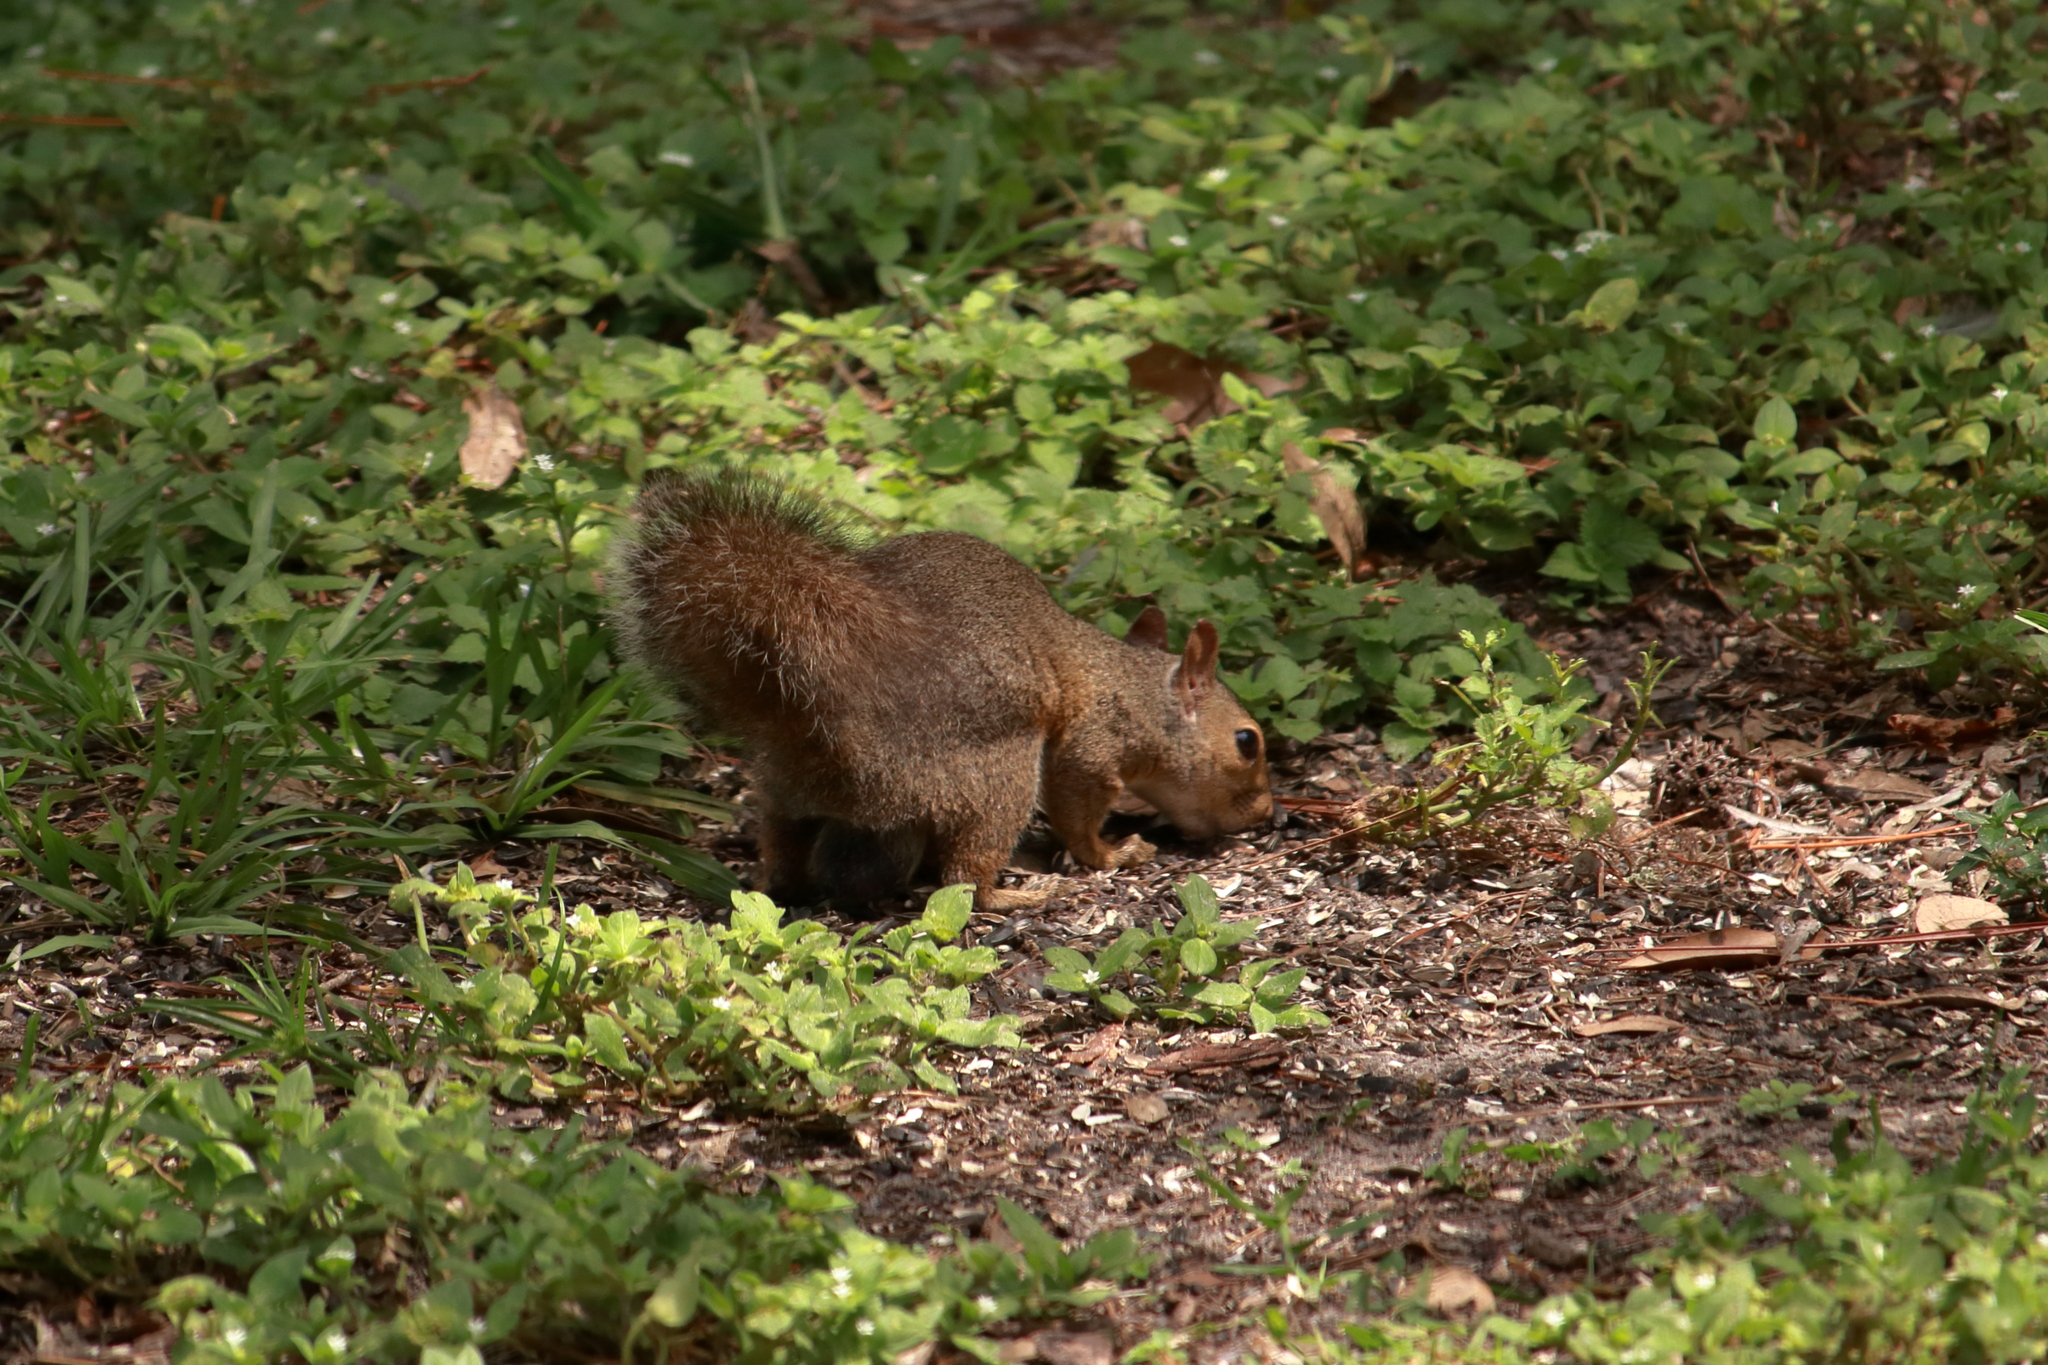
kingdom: Animalia
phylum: Chordata
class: Mammalia
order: Rodentia
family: Sciuridae
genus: Sciurus
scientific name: Sciurus carolinensis
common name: Eastern gray squirrel
